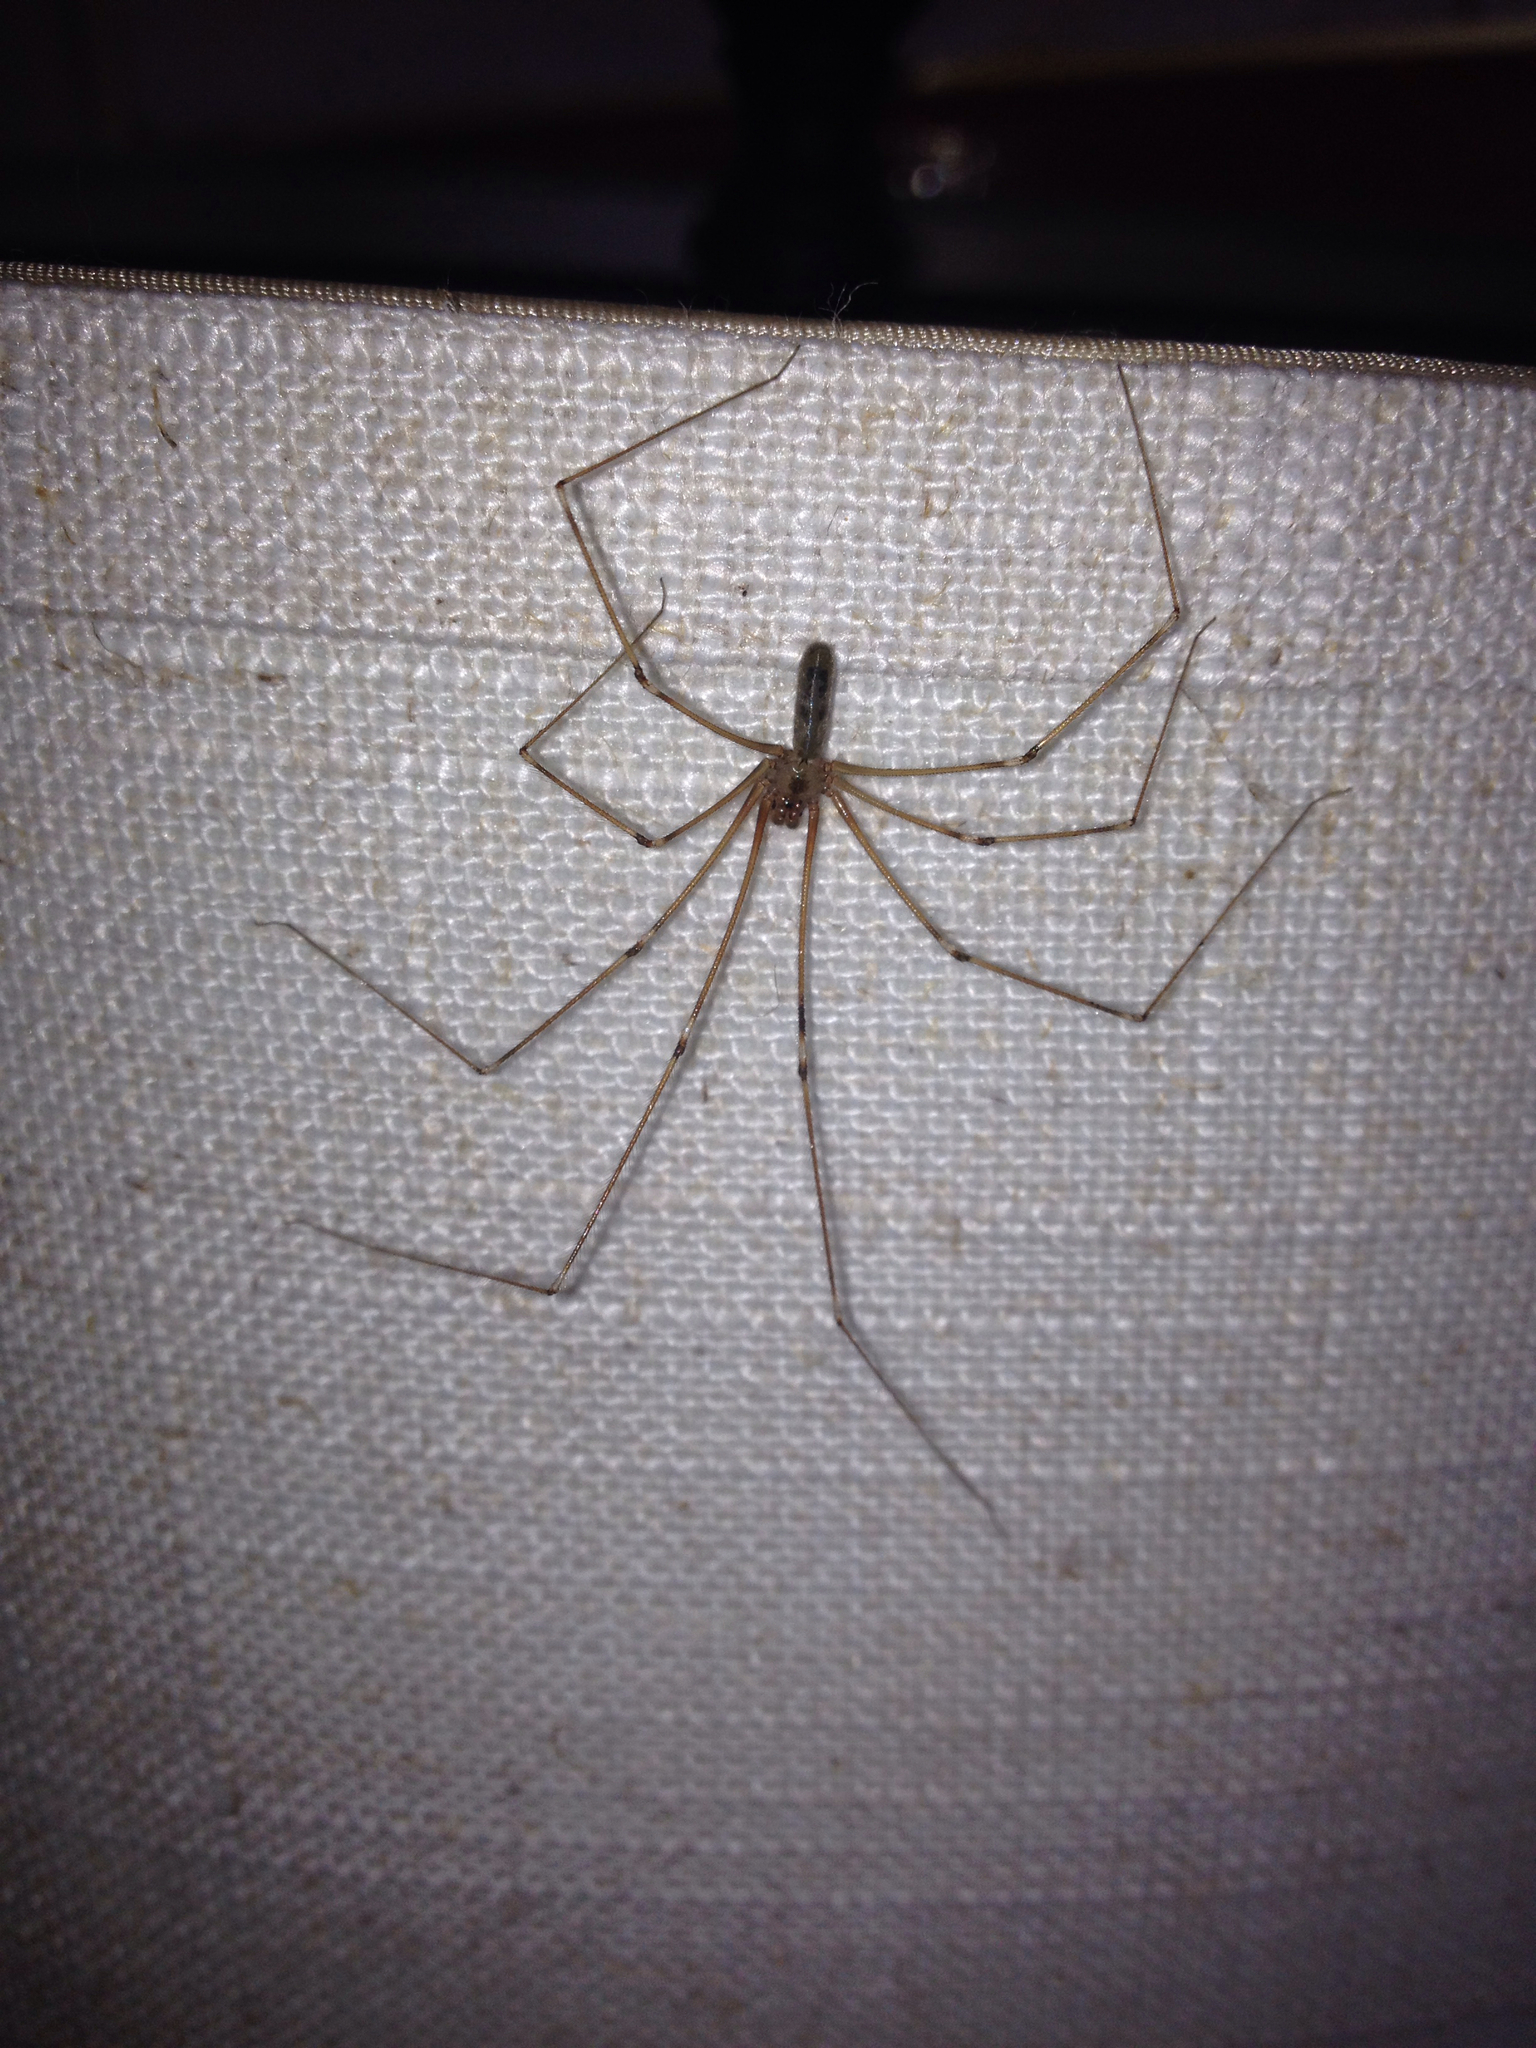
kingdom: Animalia
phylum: Arthropoda
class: Arachnida
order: Araneae
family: Pholcidae
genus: Pholcus
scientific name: Pholcus phalangioides
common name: Longbodied cellar spider
